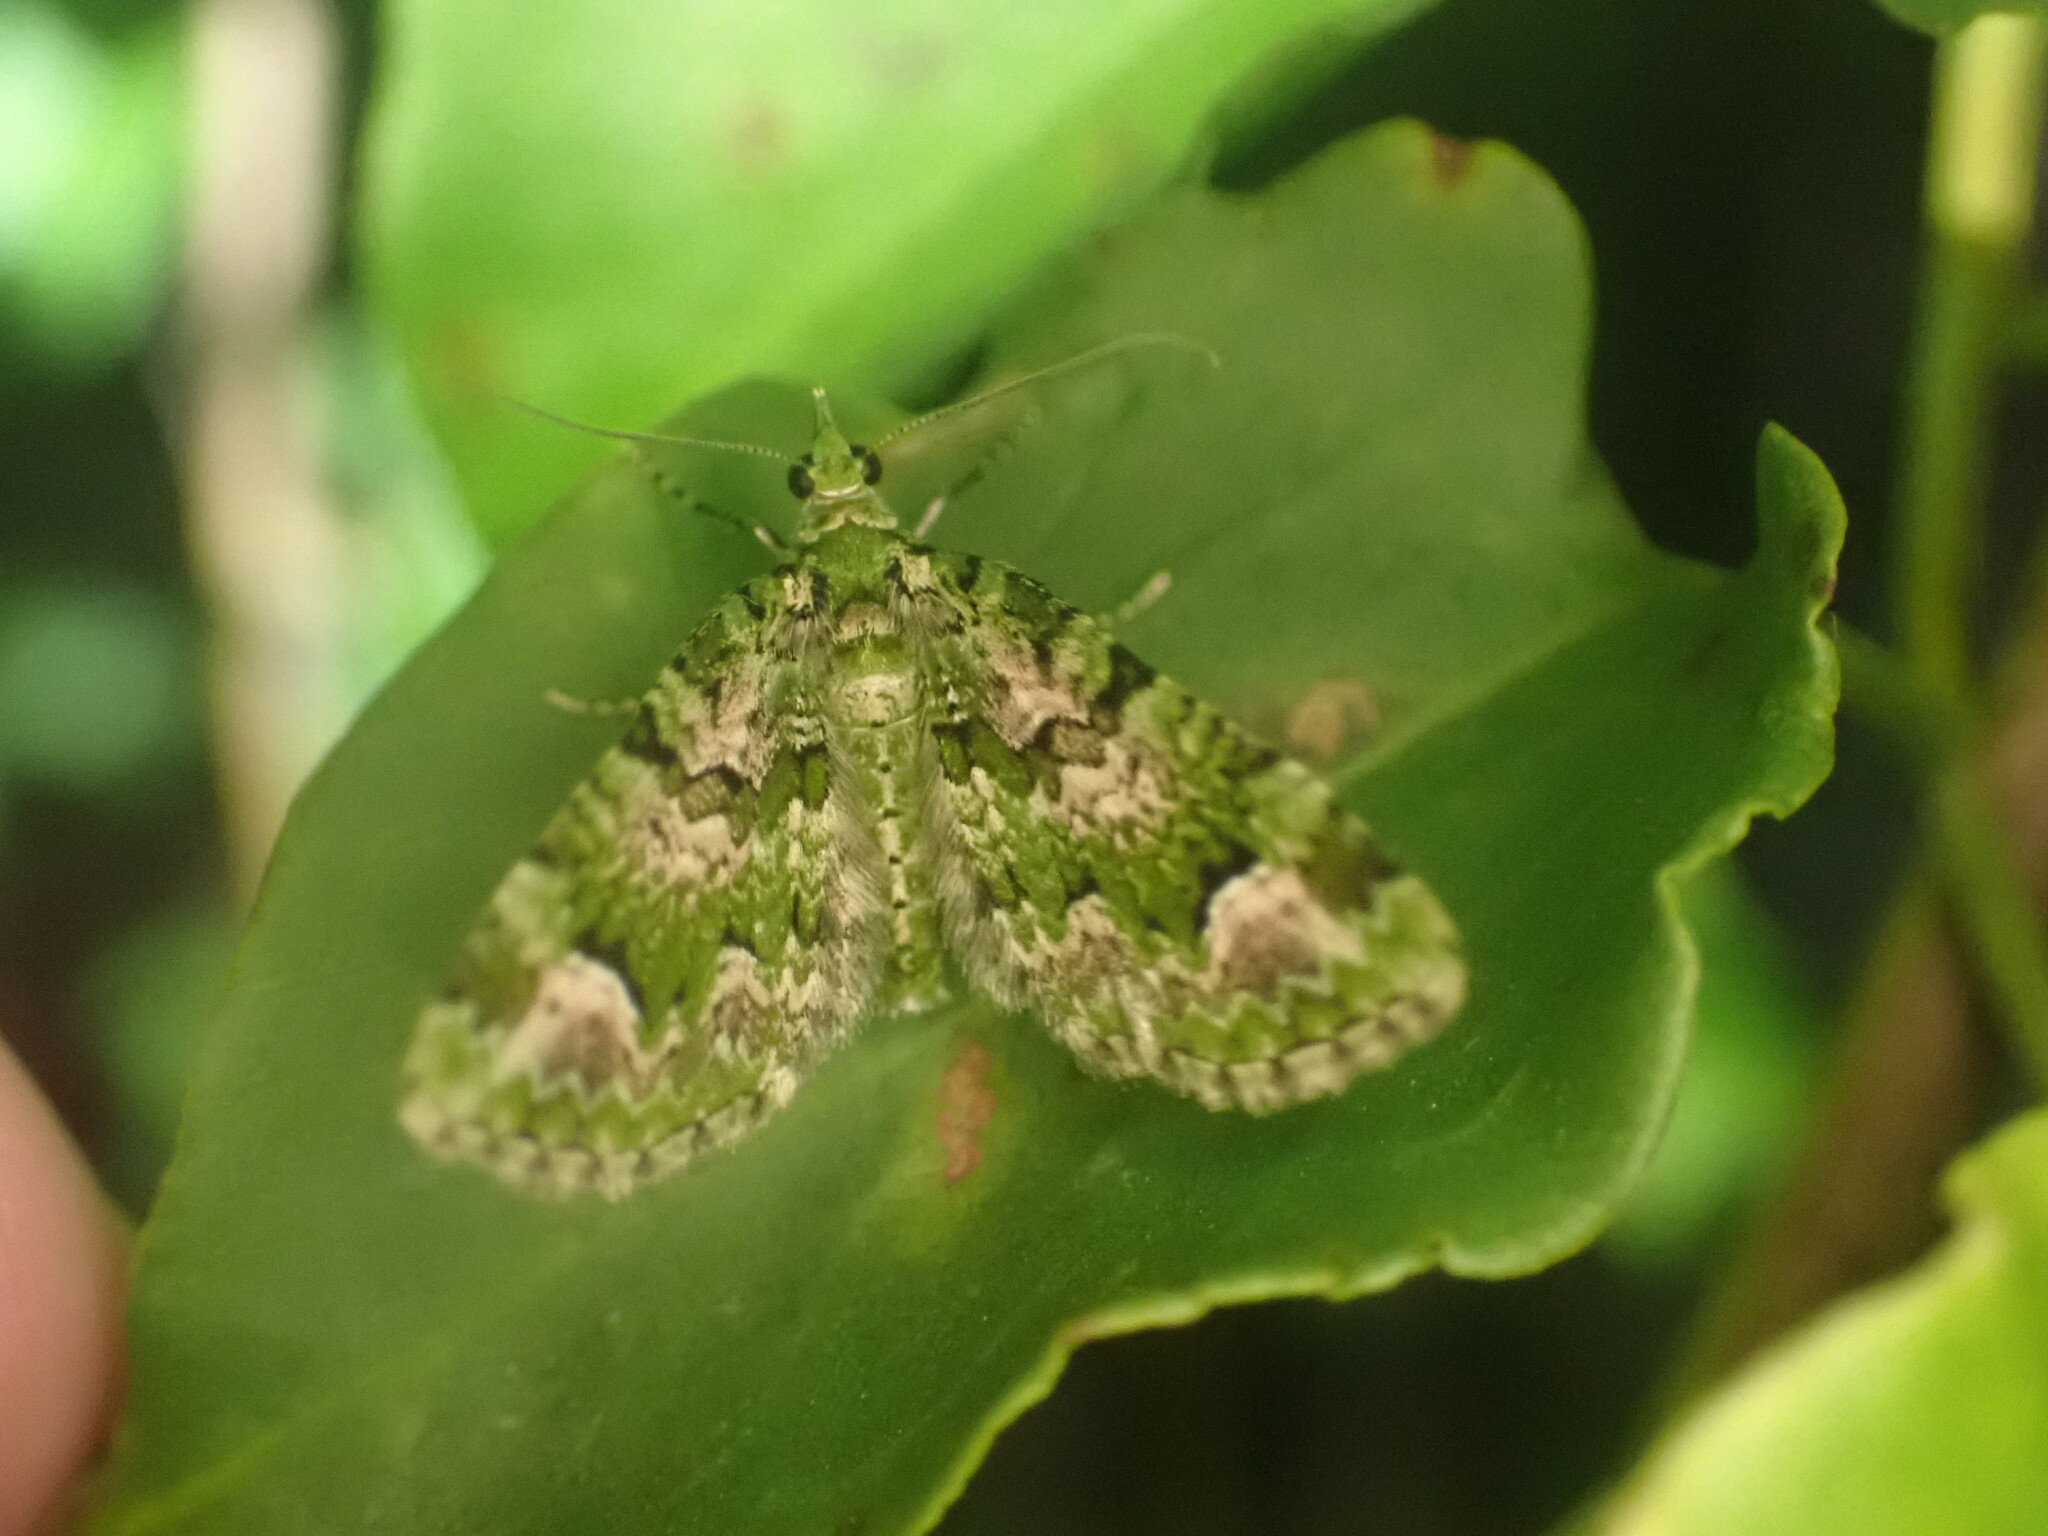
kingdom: Animalia
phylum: Arthropoda
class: Insecta
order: Lepidoptera
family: Geometridae
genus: Pasiphila
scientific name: Pasiphila semochlora
